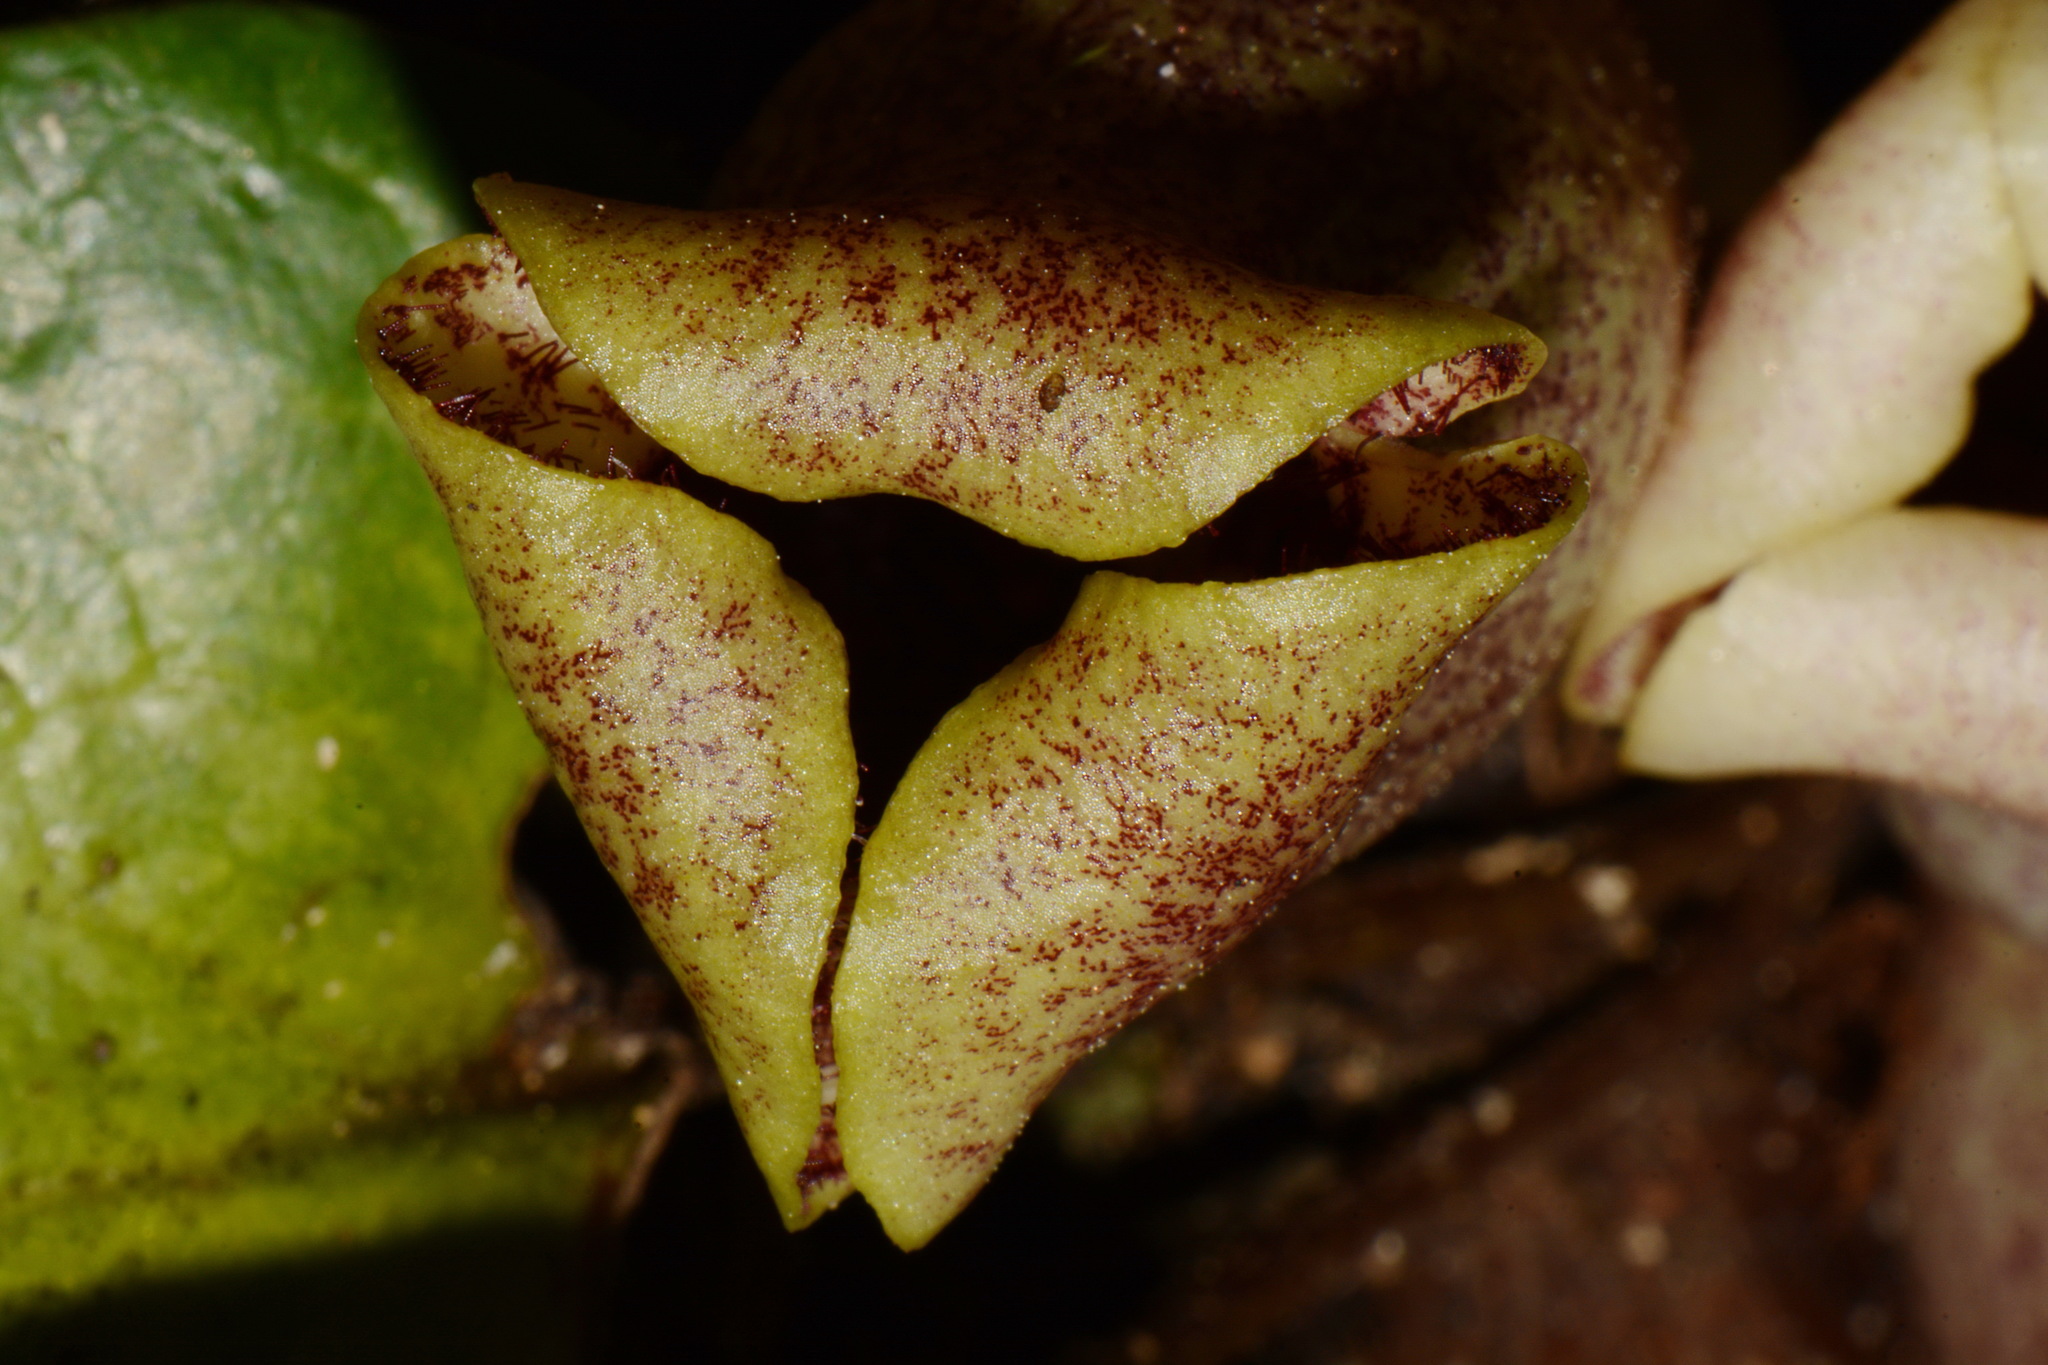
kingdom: Plantae
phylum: Tracheophyta
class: Magnoliopsida
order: Piperales
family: Aristolochiaceae
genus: Hexastylis
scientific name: Hexastylis shuttleworthii
